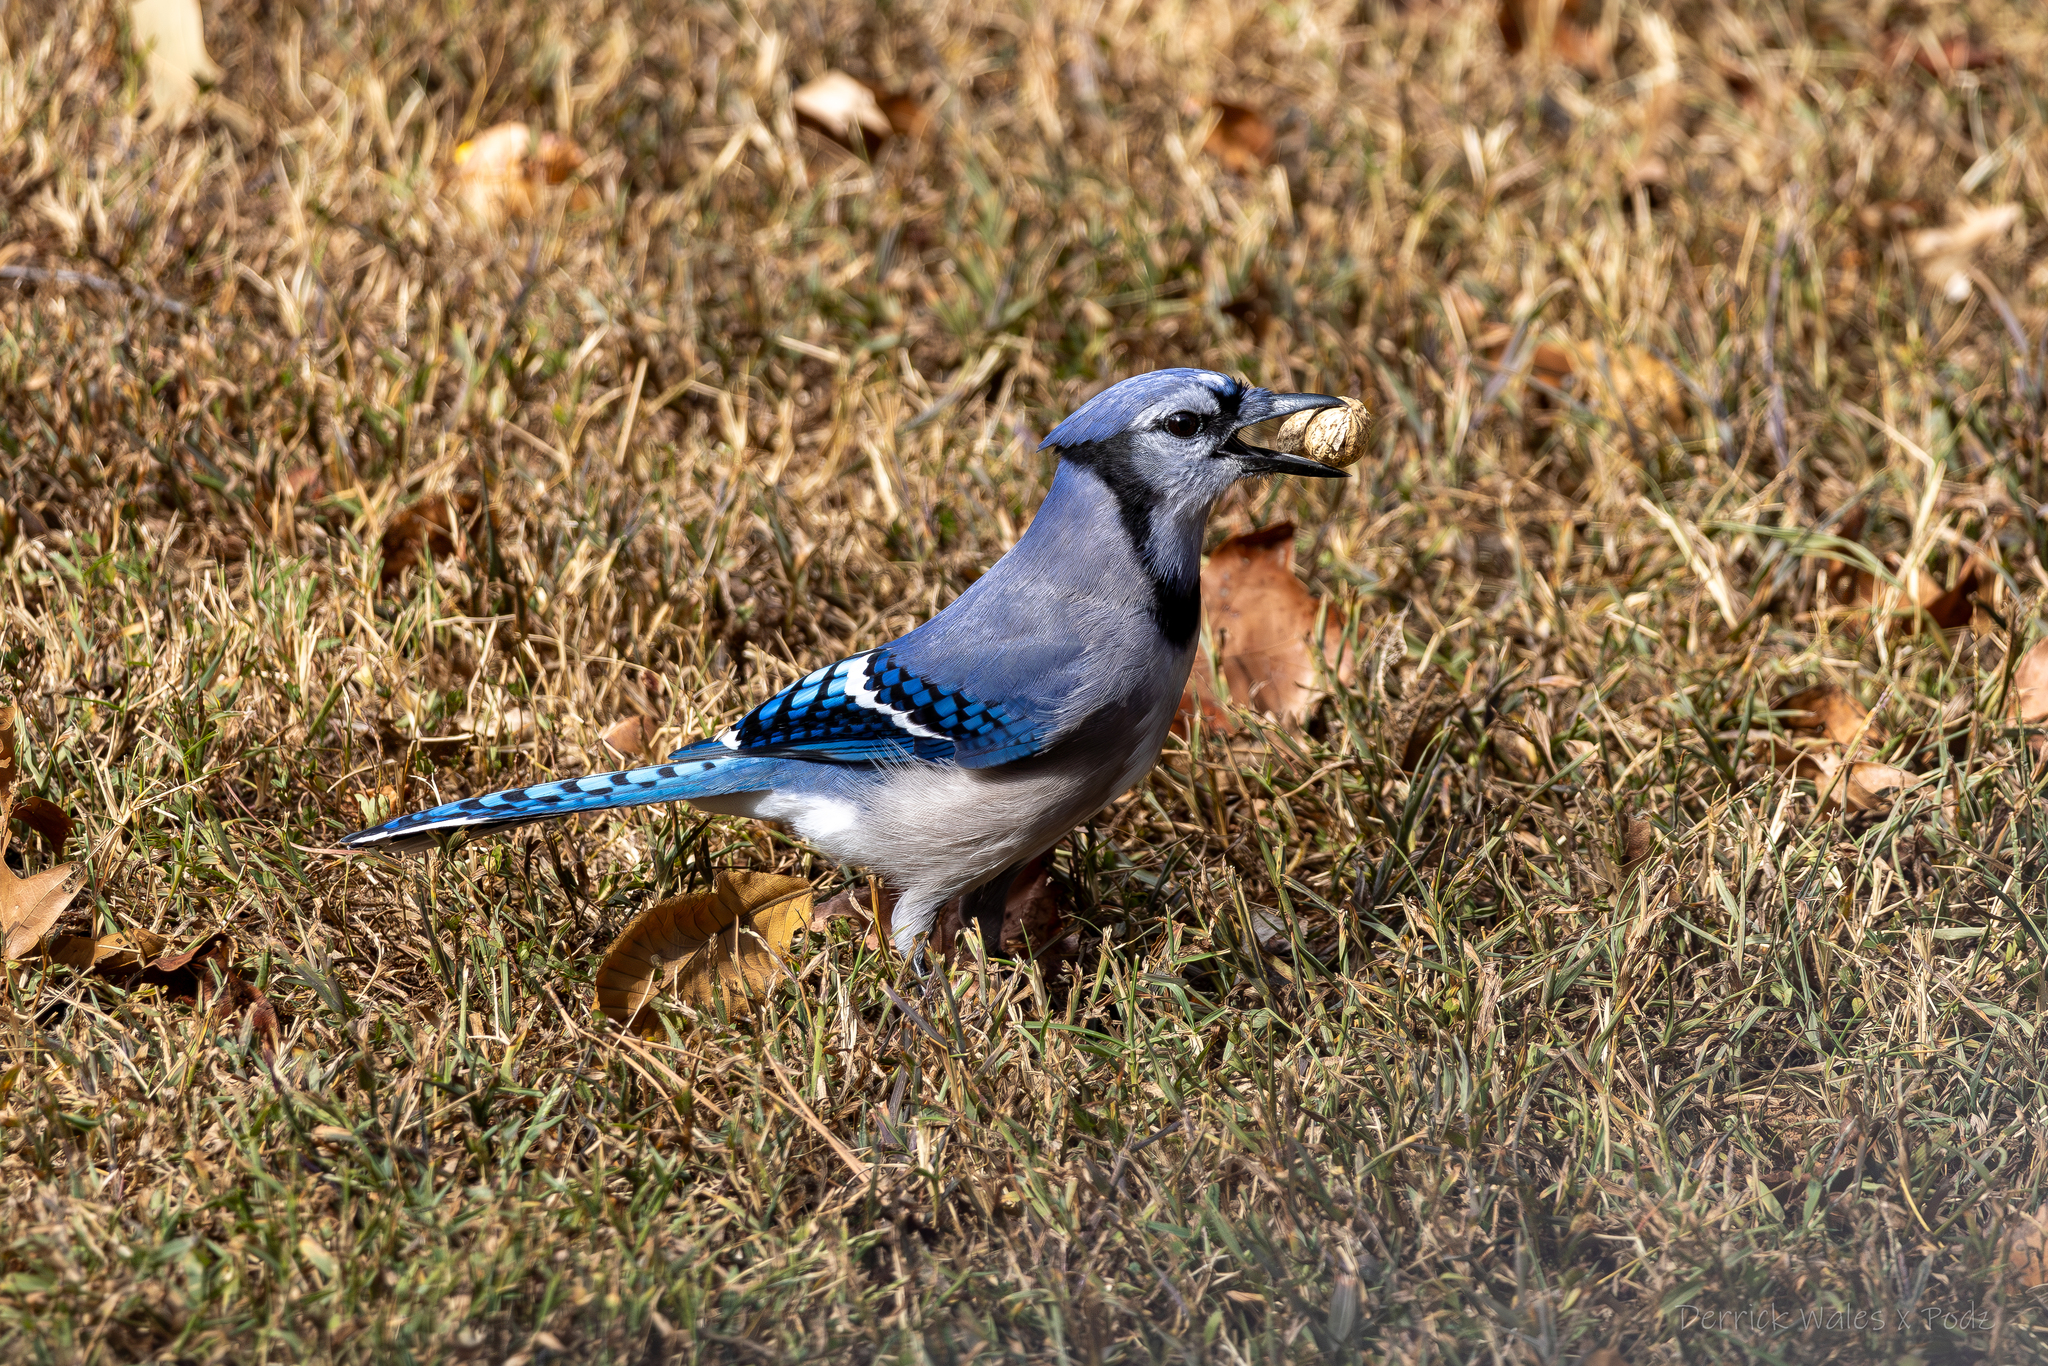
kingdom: Animalia
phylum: Chordata
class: Aves
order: Passeriformes
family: Corvidae
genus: Cyanocitta
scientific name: Cyanocitta cristata
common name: Blue jay
